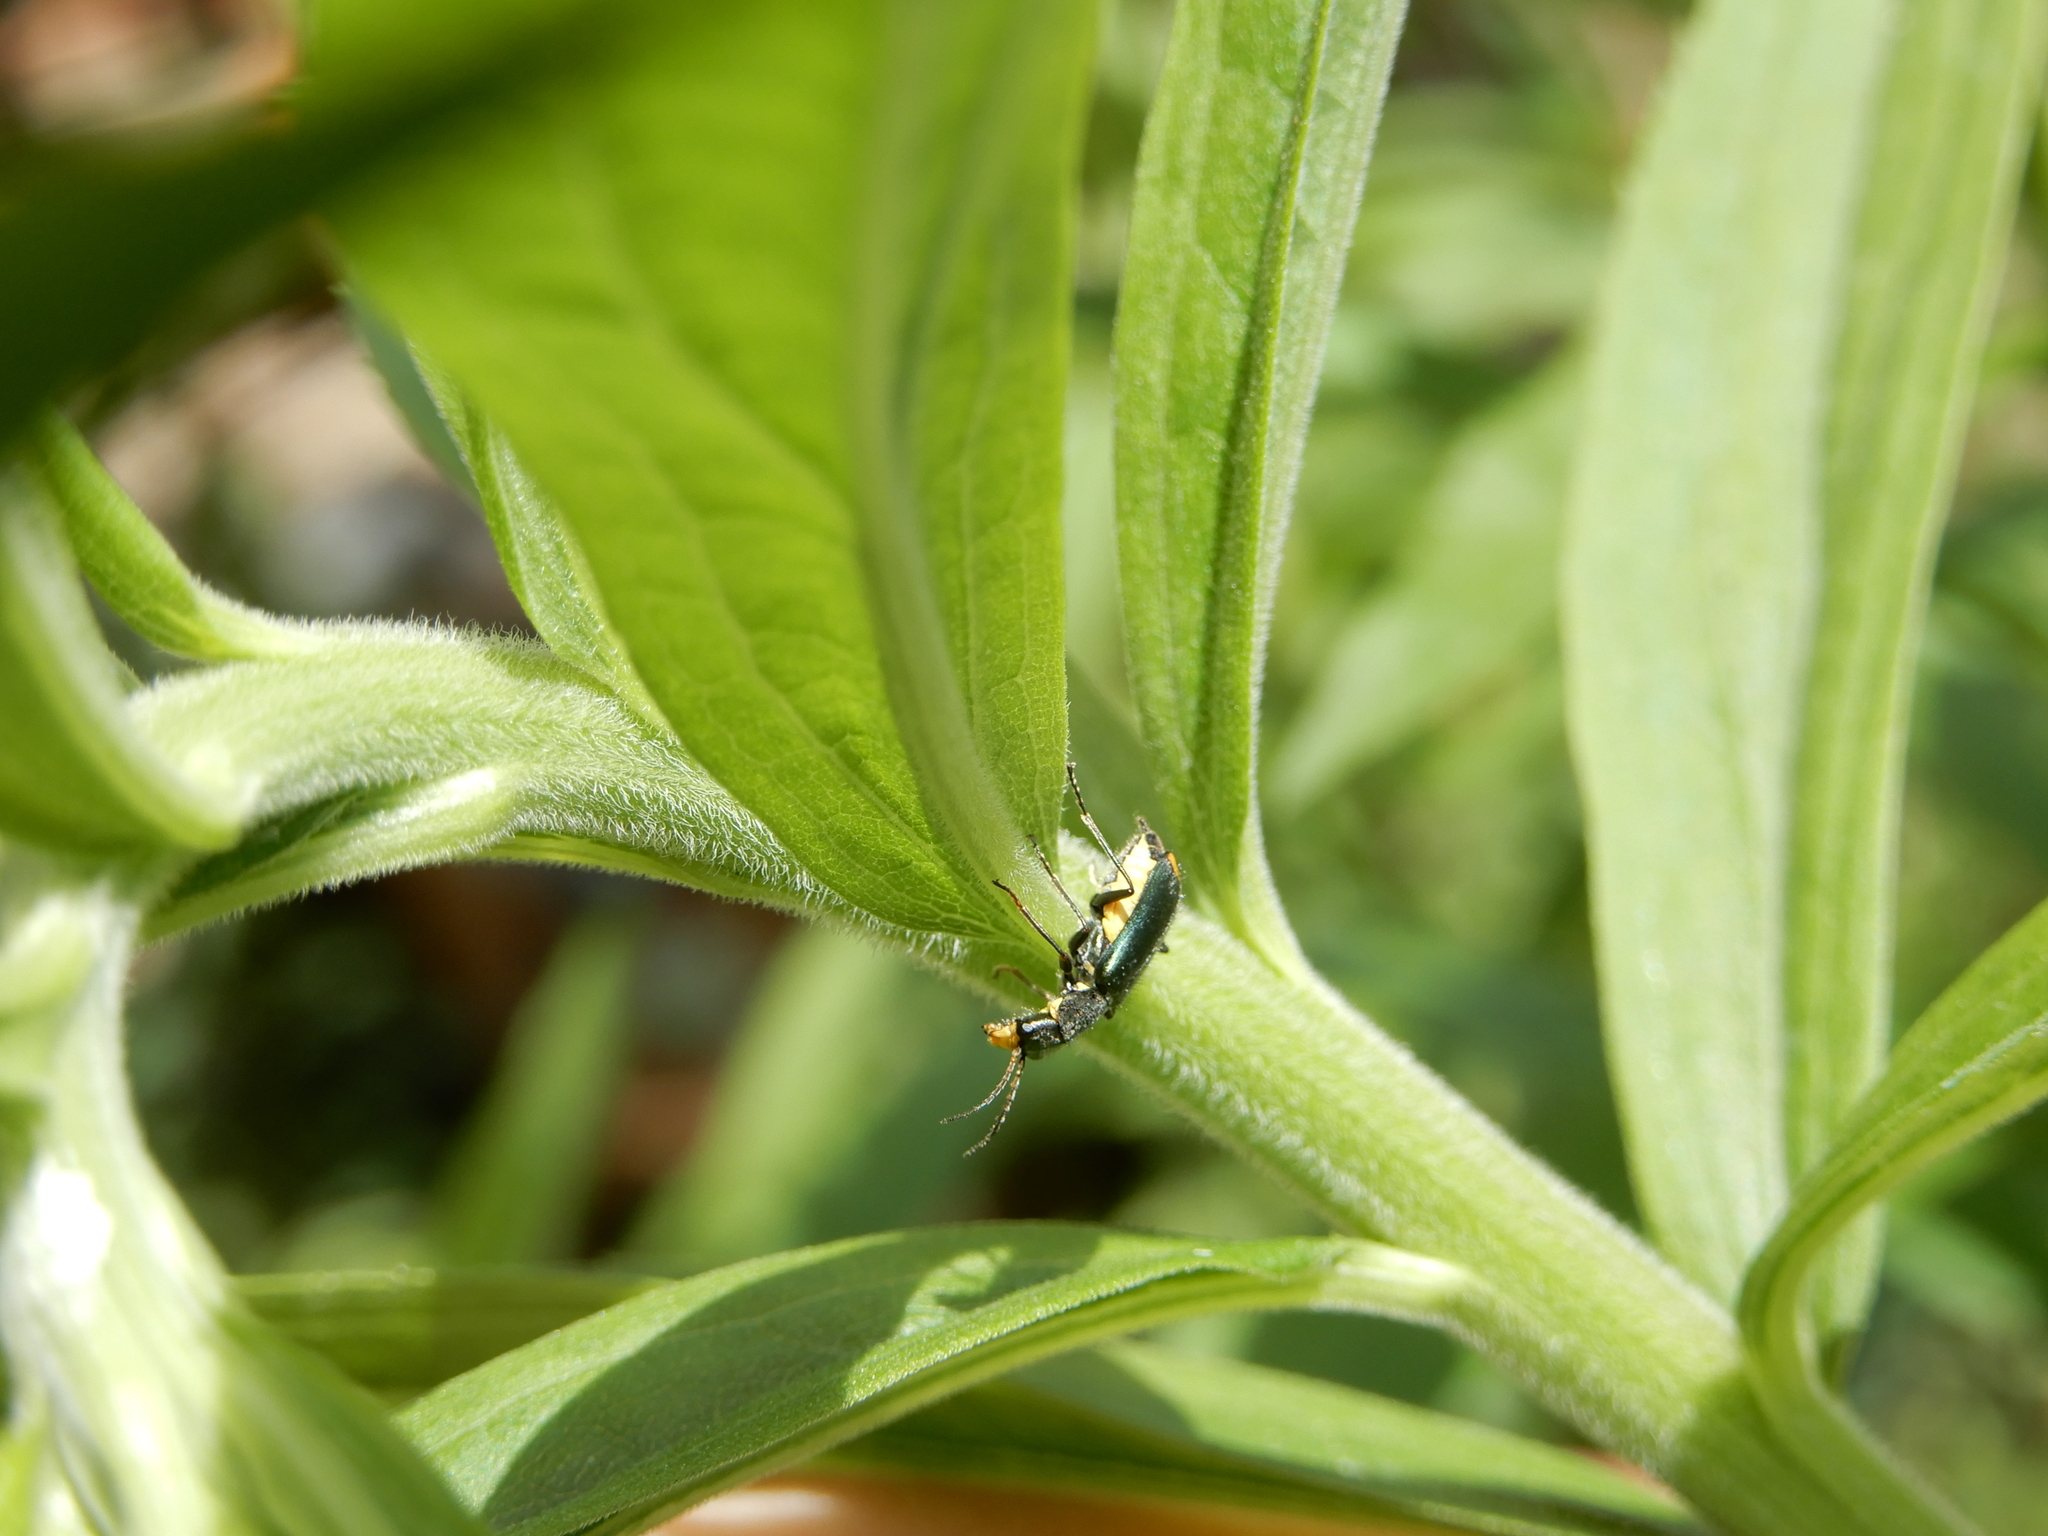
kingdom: Animalia
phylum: Arthropoda
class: Insecta
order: Coleoptera
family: Malachiidae
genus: Clanoptilus
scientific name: Clanoptilus marginellus
